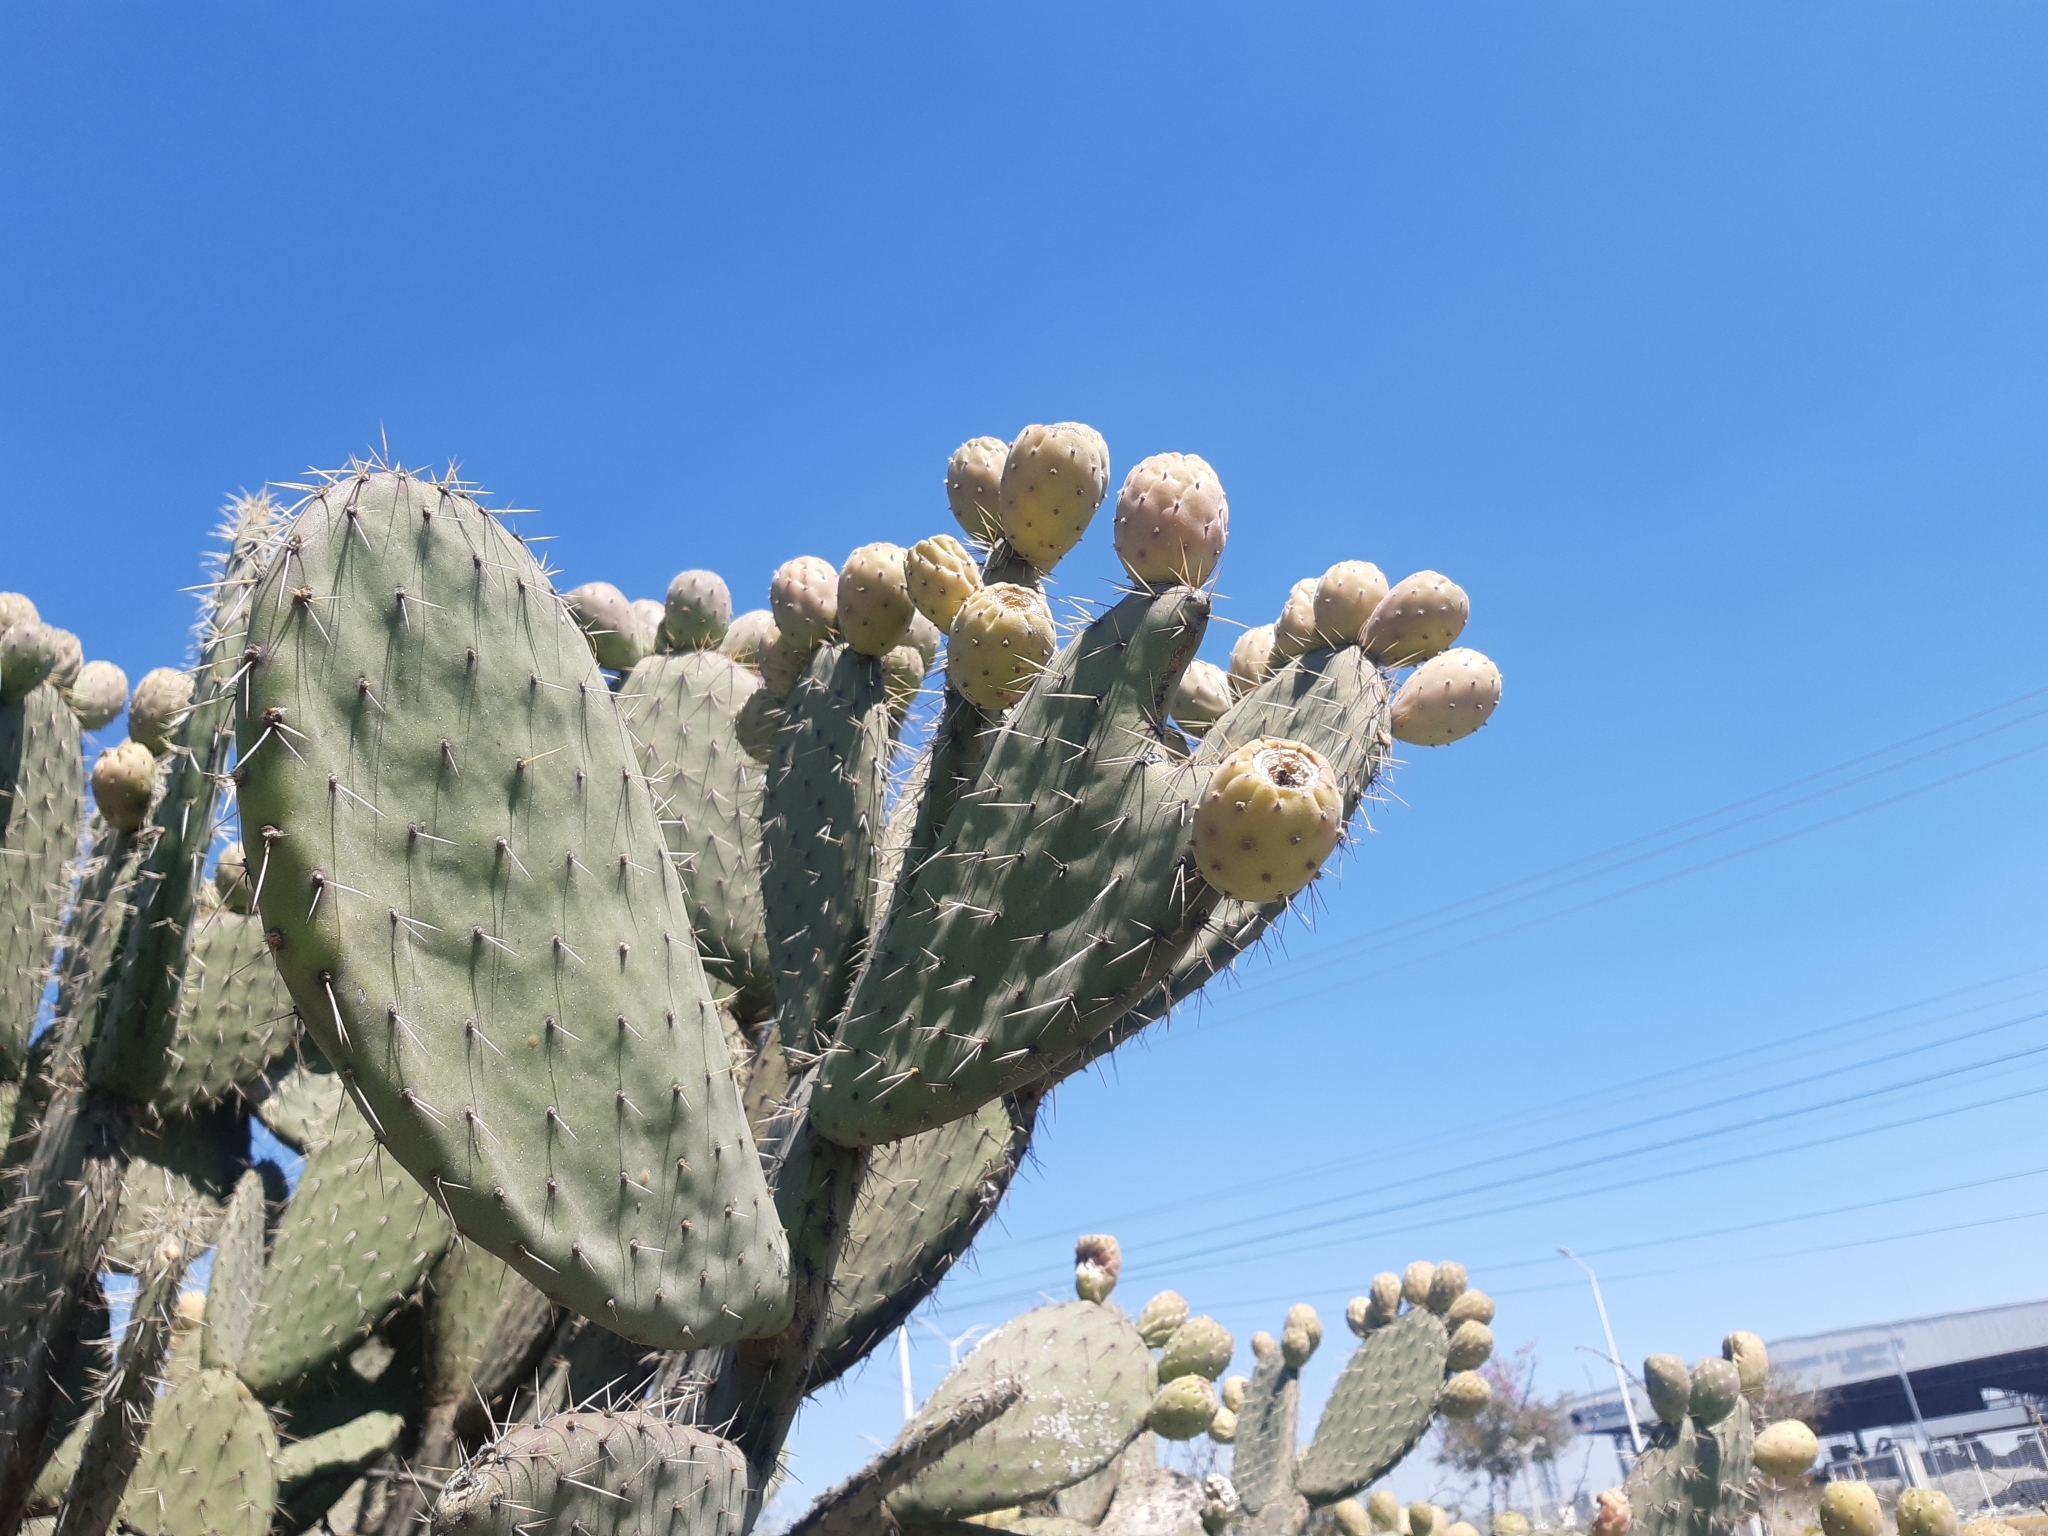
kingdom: Plantae
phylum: Tracheophyta
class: Magnoliopsida
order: Caryophyllales
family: Cactaceae
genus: Opuntia
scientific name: Opuntia joconostle
